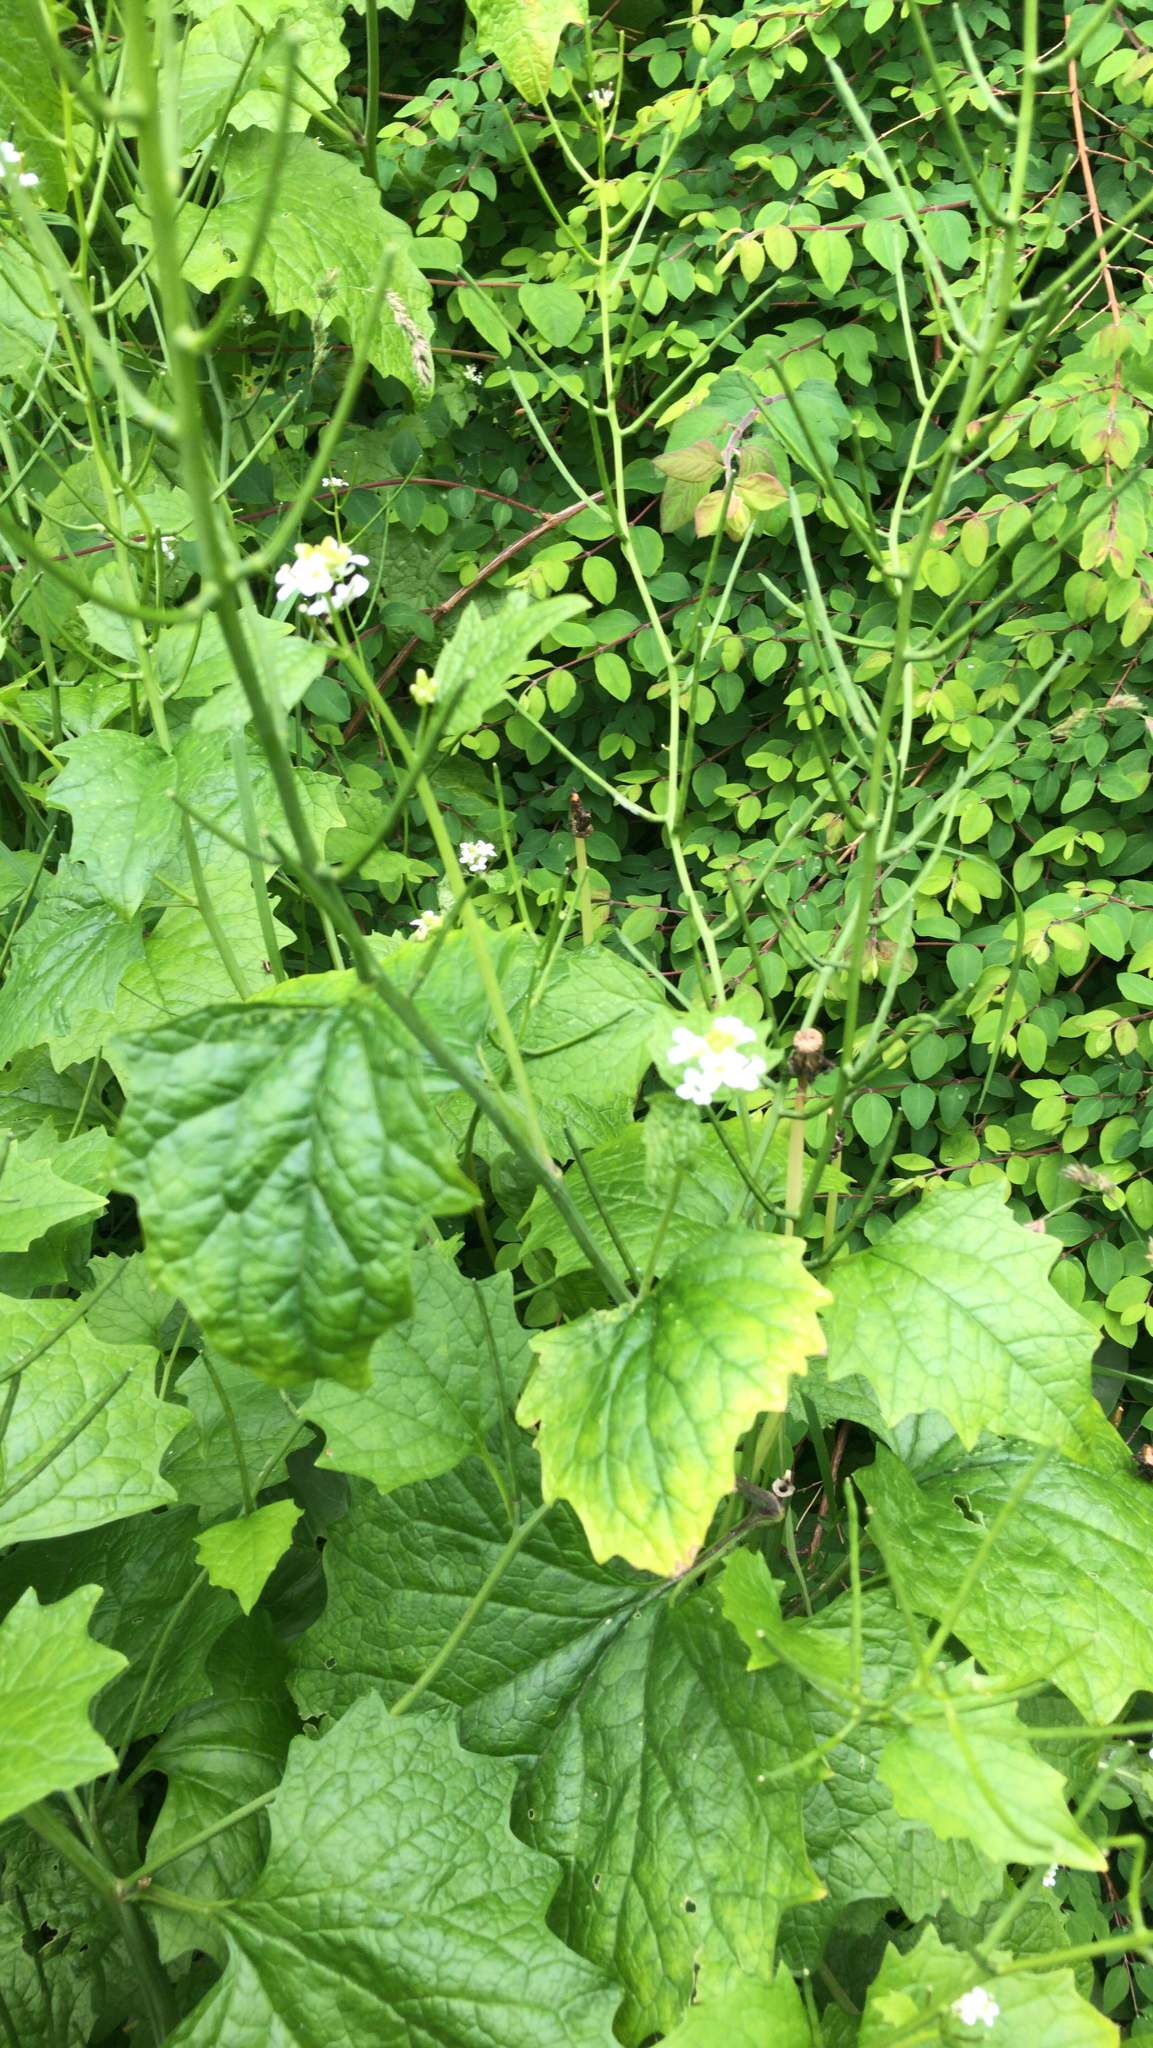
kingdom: Plantae
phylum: Tracheophyta
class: Magnoliopsida
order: Brassicales
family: Brassicaceae
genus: Alliaria
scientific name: Alliaria petiolata
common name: Garlic mustard
